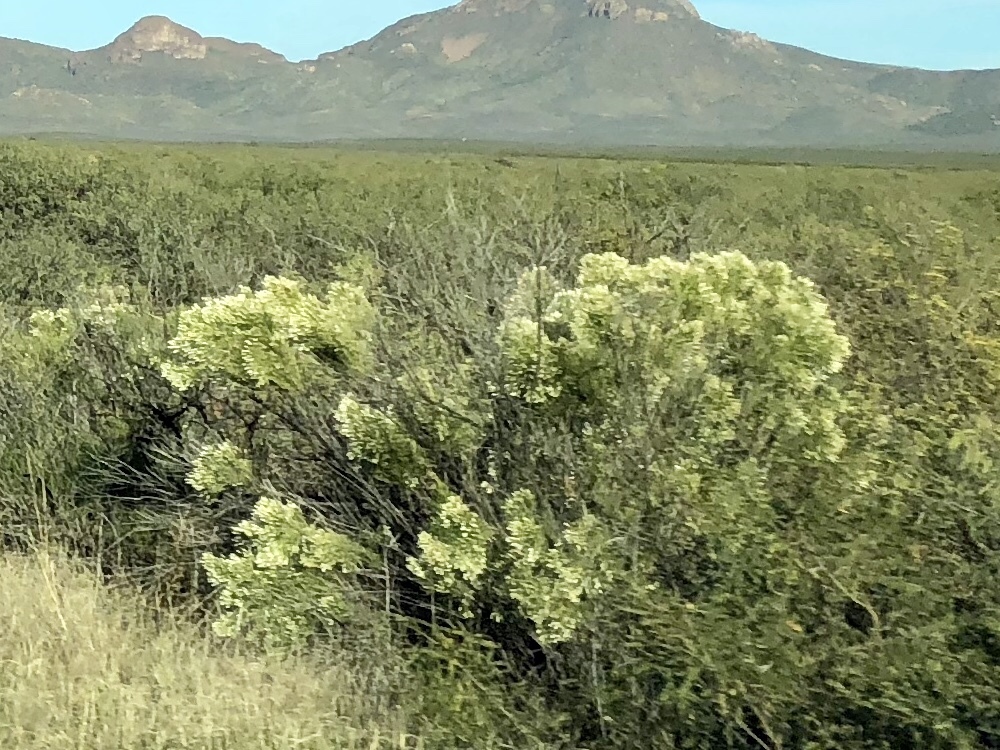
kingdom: Plantae
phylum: Tracheophyta
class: Magnoliopsida
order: Asterales
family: Asteraceae
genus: Baccharis
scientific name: Baccharis sarothroides
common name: Desert-broom
